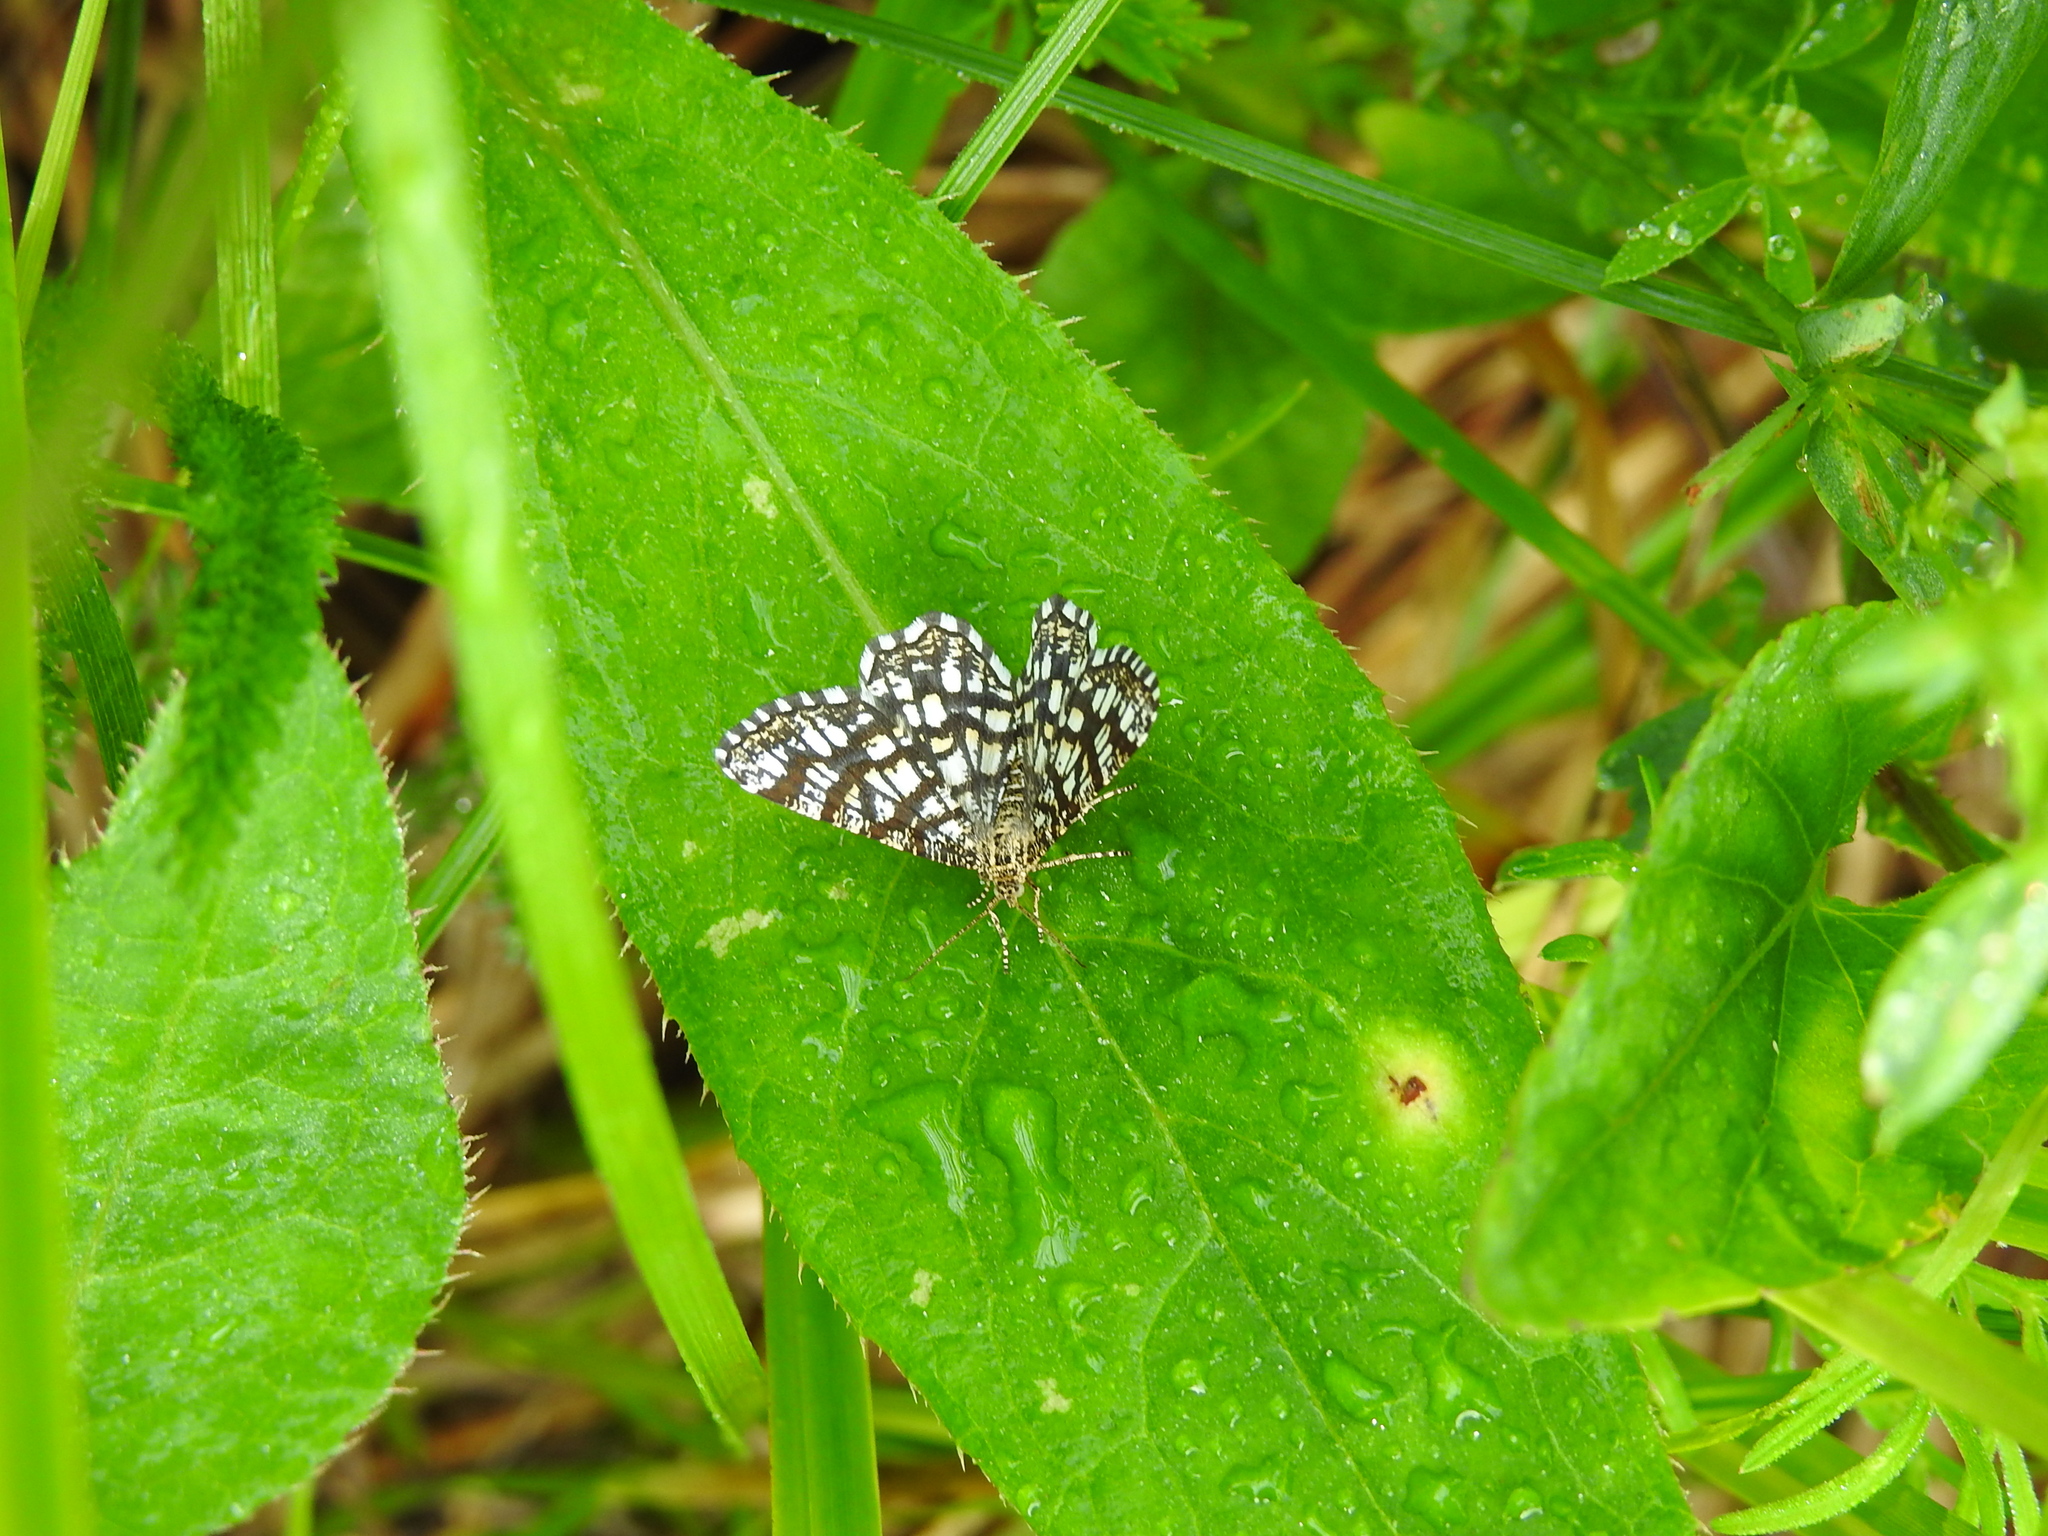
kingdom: Animalia
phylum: Arthropoda
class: Insecta
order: Lepidoptera
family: Geometridae
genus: Chiasmia
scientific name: Chiasmia clathrata
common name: Latticed heath
